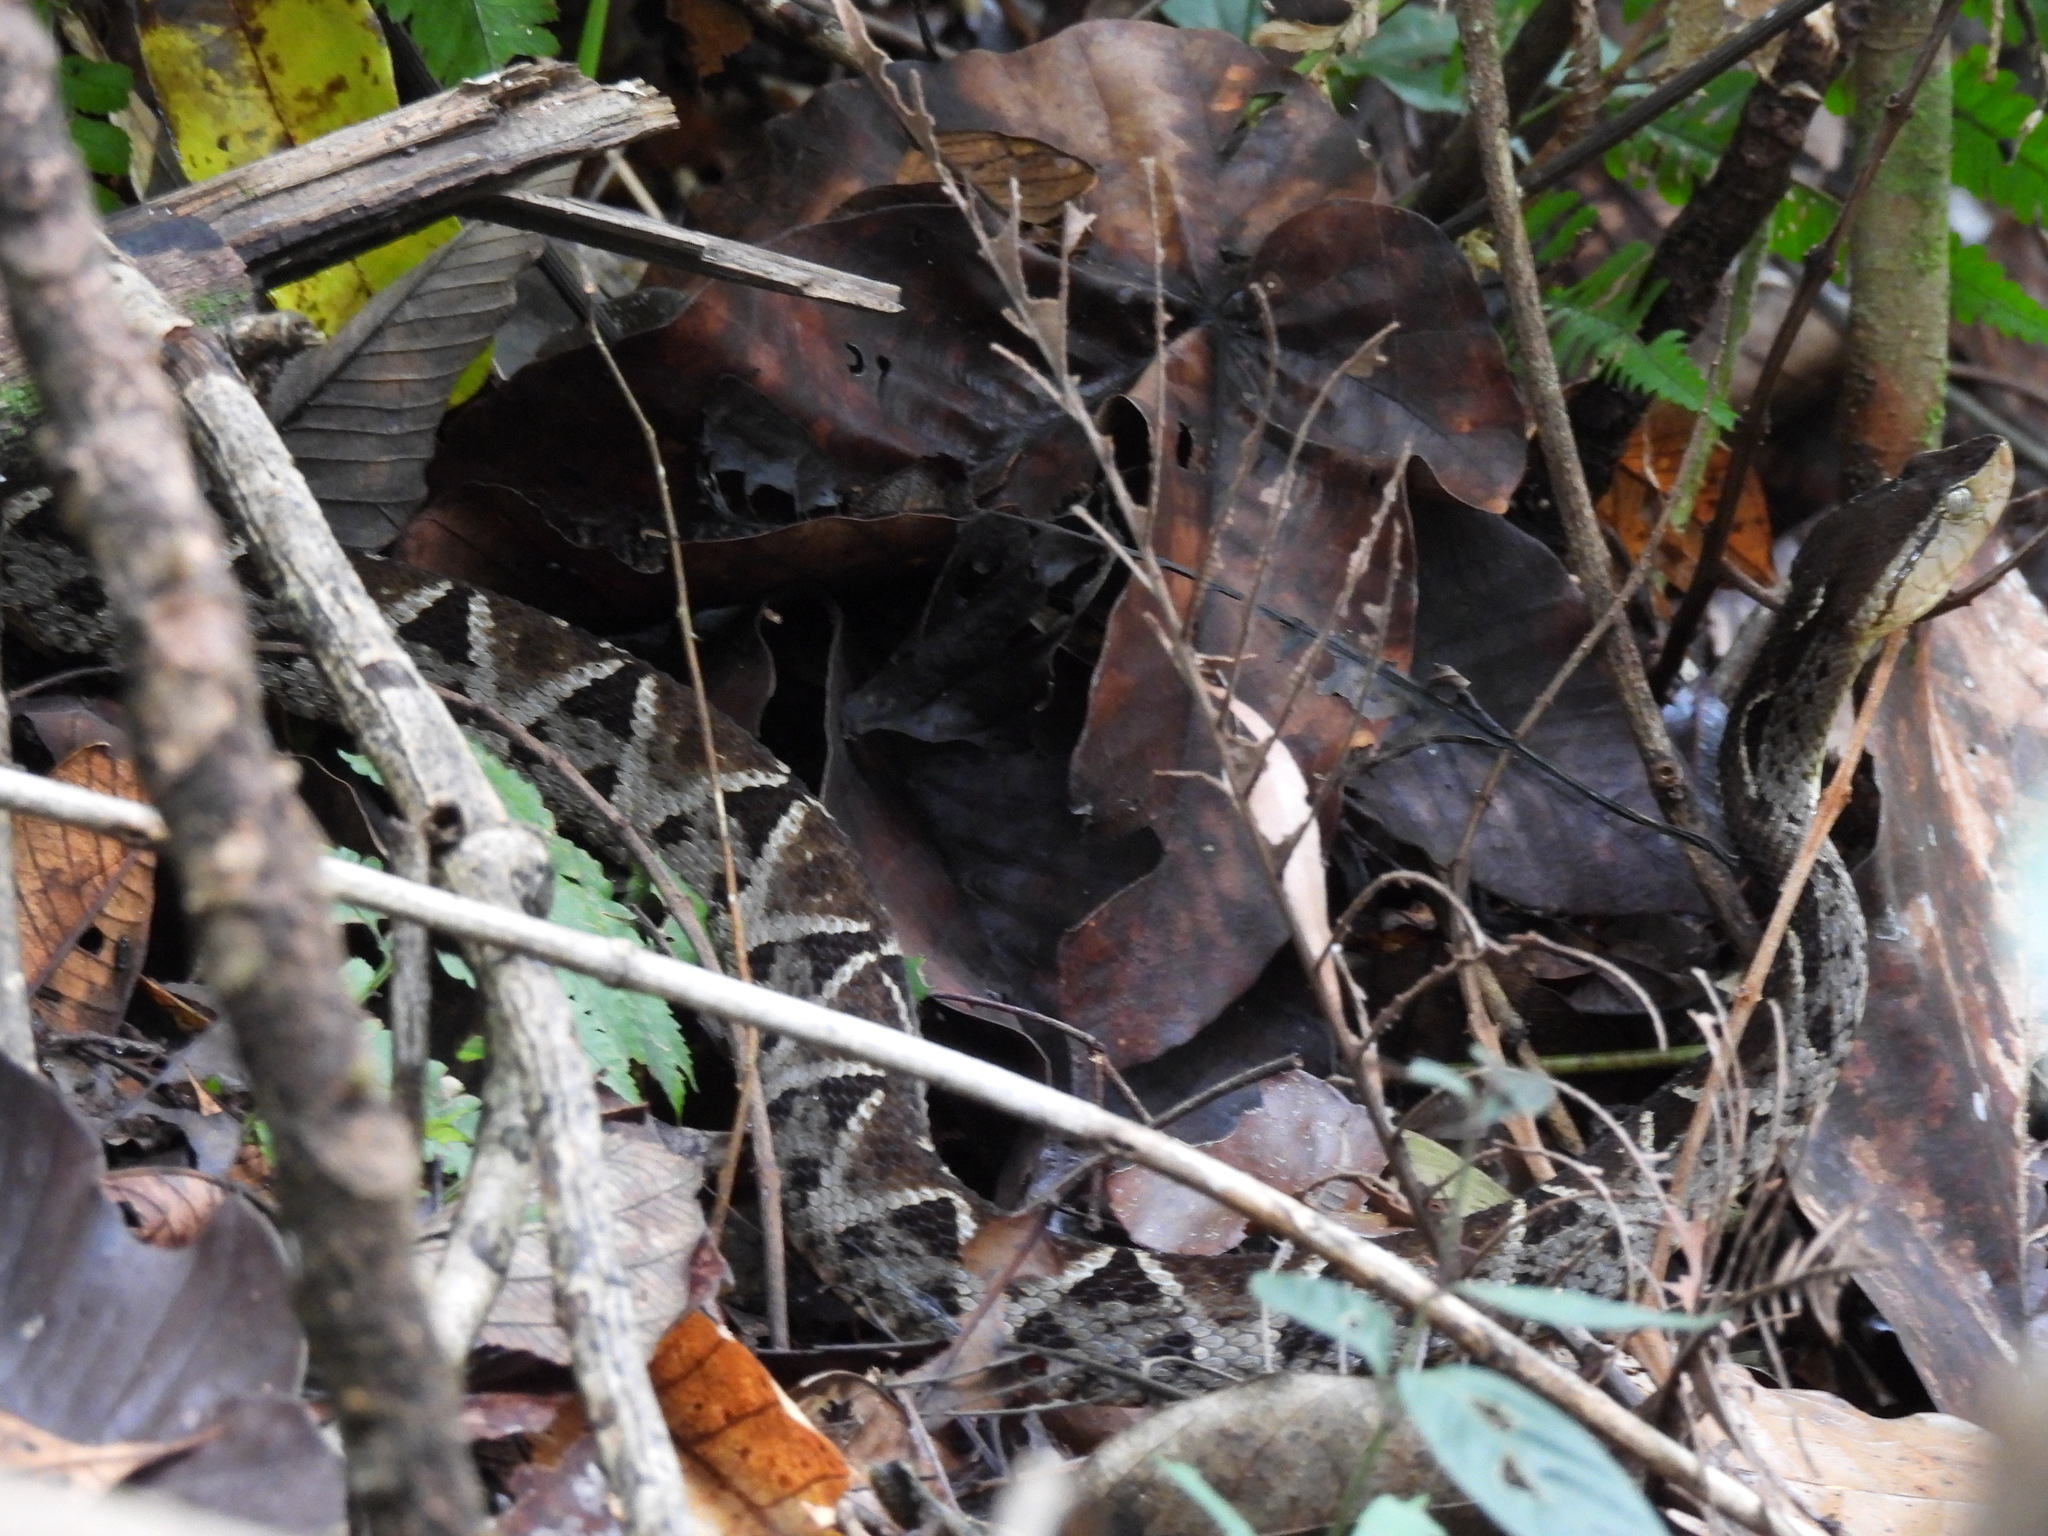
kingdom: Animalia
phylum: Chordata
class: Squamata
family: Viperidae
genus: Bothrops
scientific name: Bothrops asper
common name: Terciopelo
